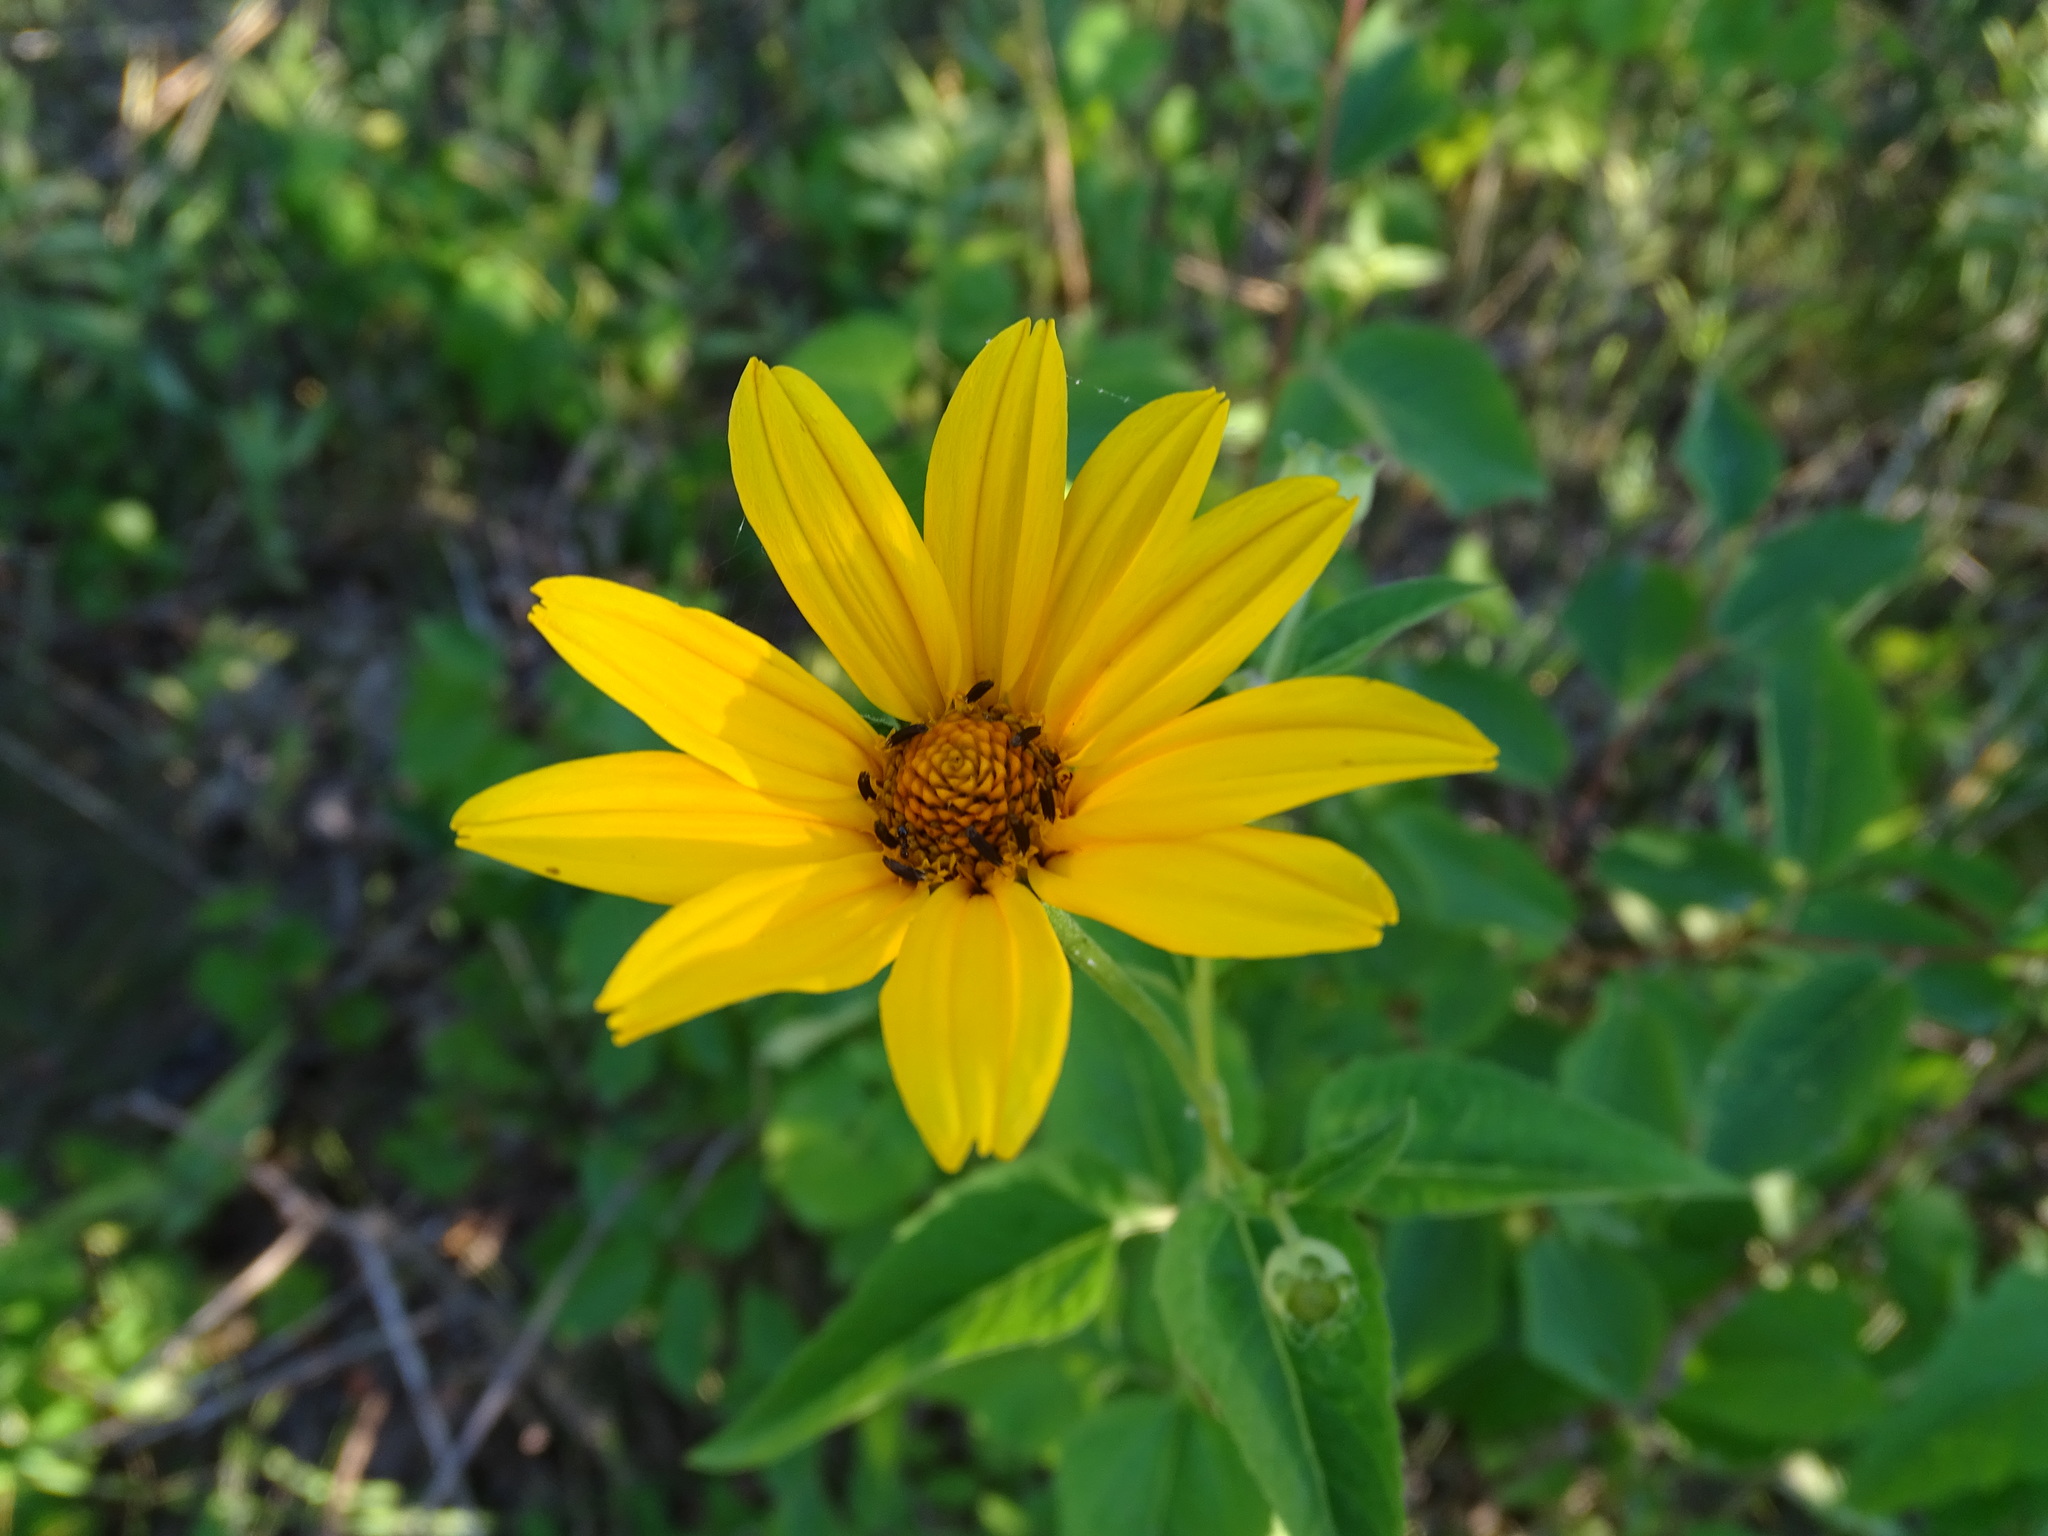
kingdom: Plantae
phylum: Tracheophyta
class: Magnoliopsida
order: Asterales
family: Asteraceae
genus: Heliopsis
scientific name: Heliopsis helianthoides
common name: False sunflower
